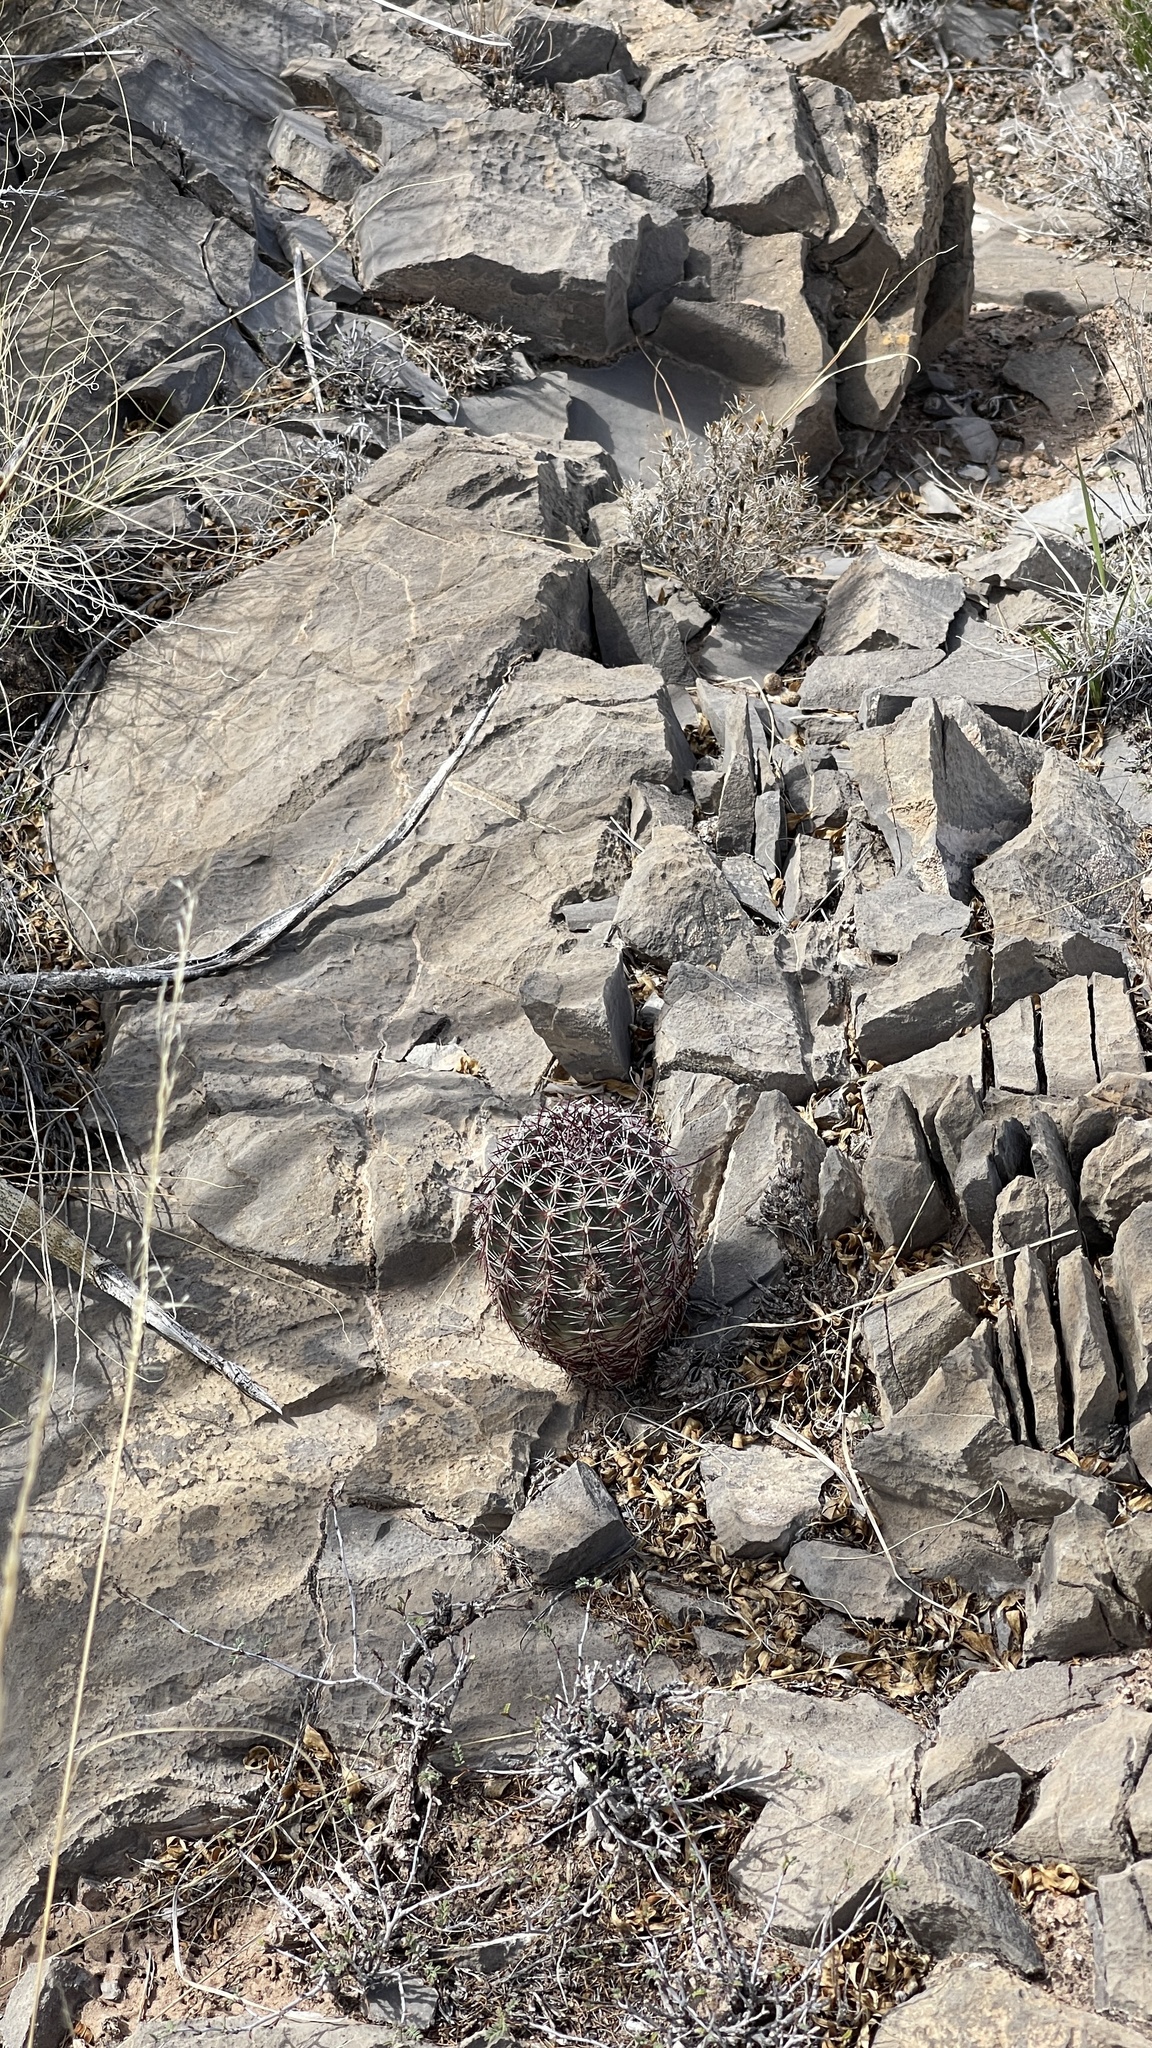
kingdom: Plantae
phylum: Tracheophyta
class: Magnoliopsida
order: Caryophyllales
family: Cactaceae
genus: Echinocereus
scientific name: Echinocereus viridiflorus
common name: Nylon hedgehog cactus
